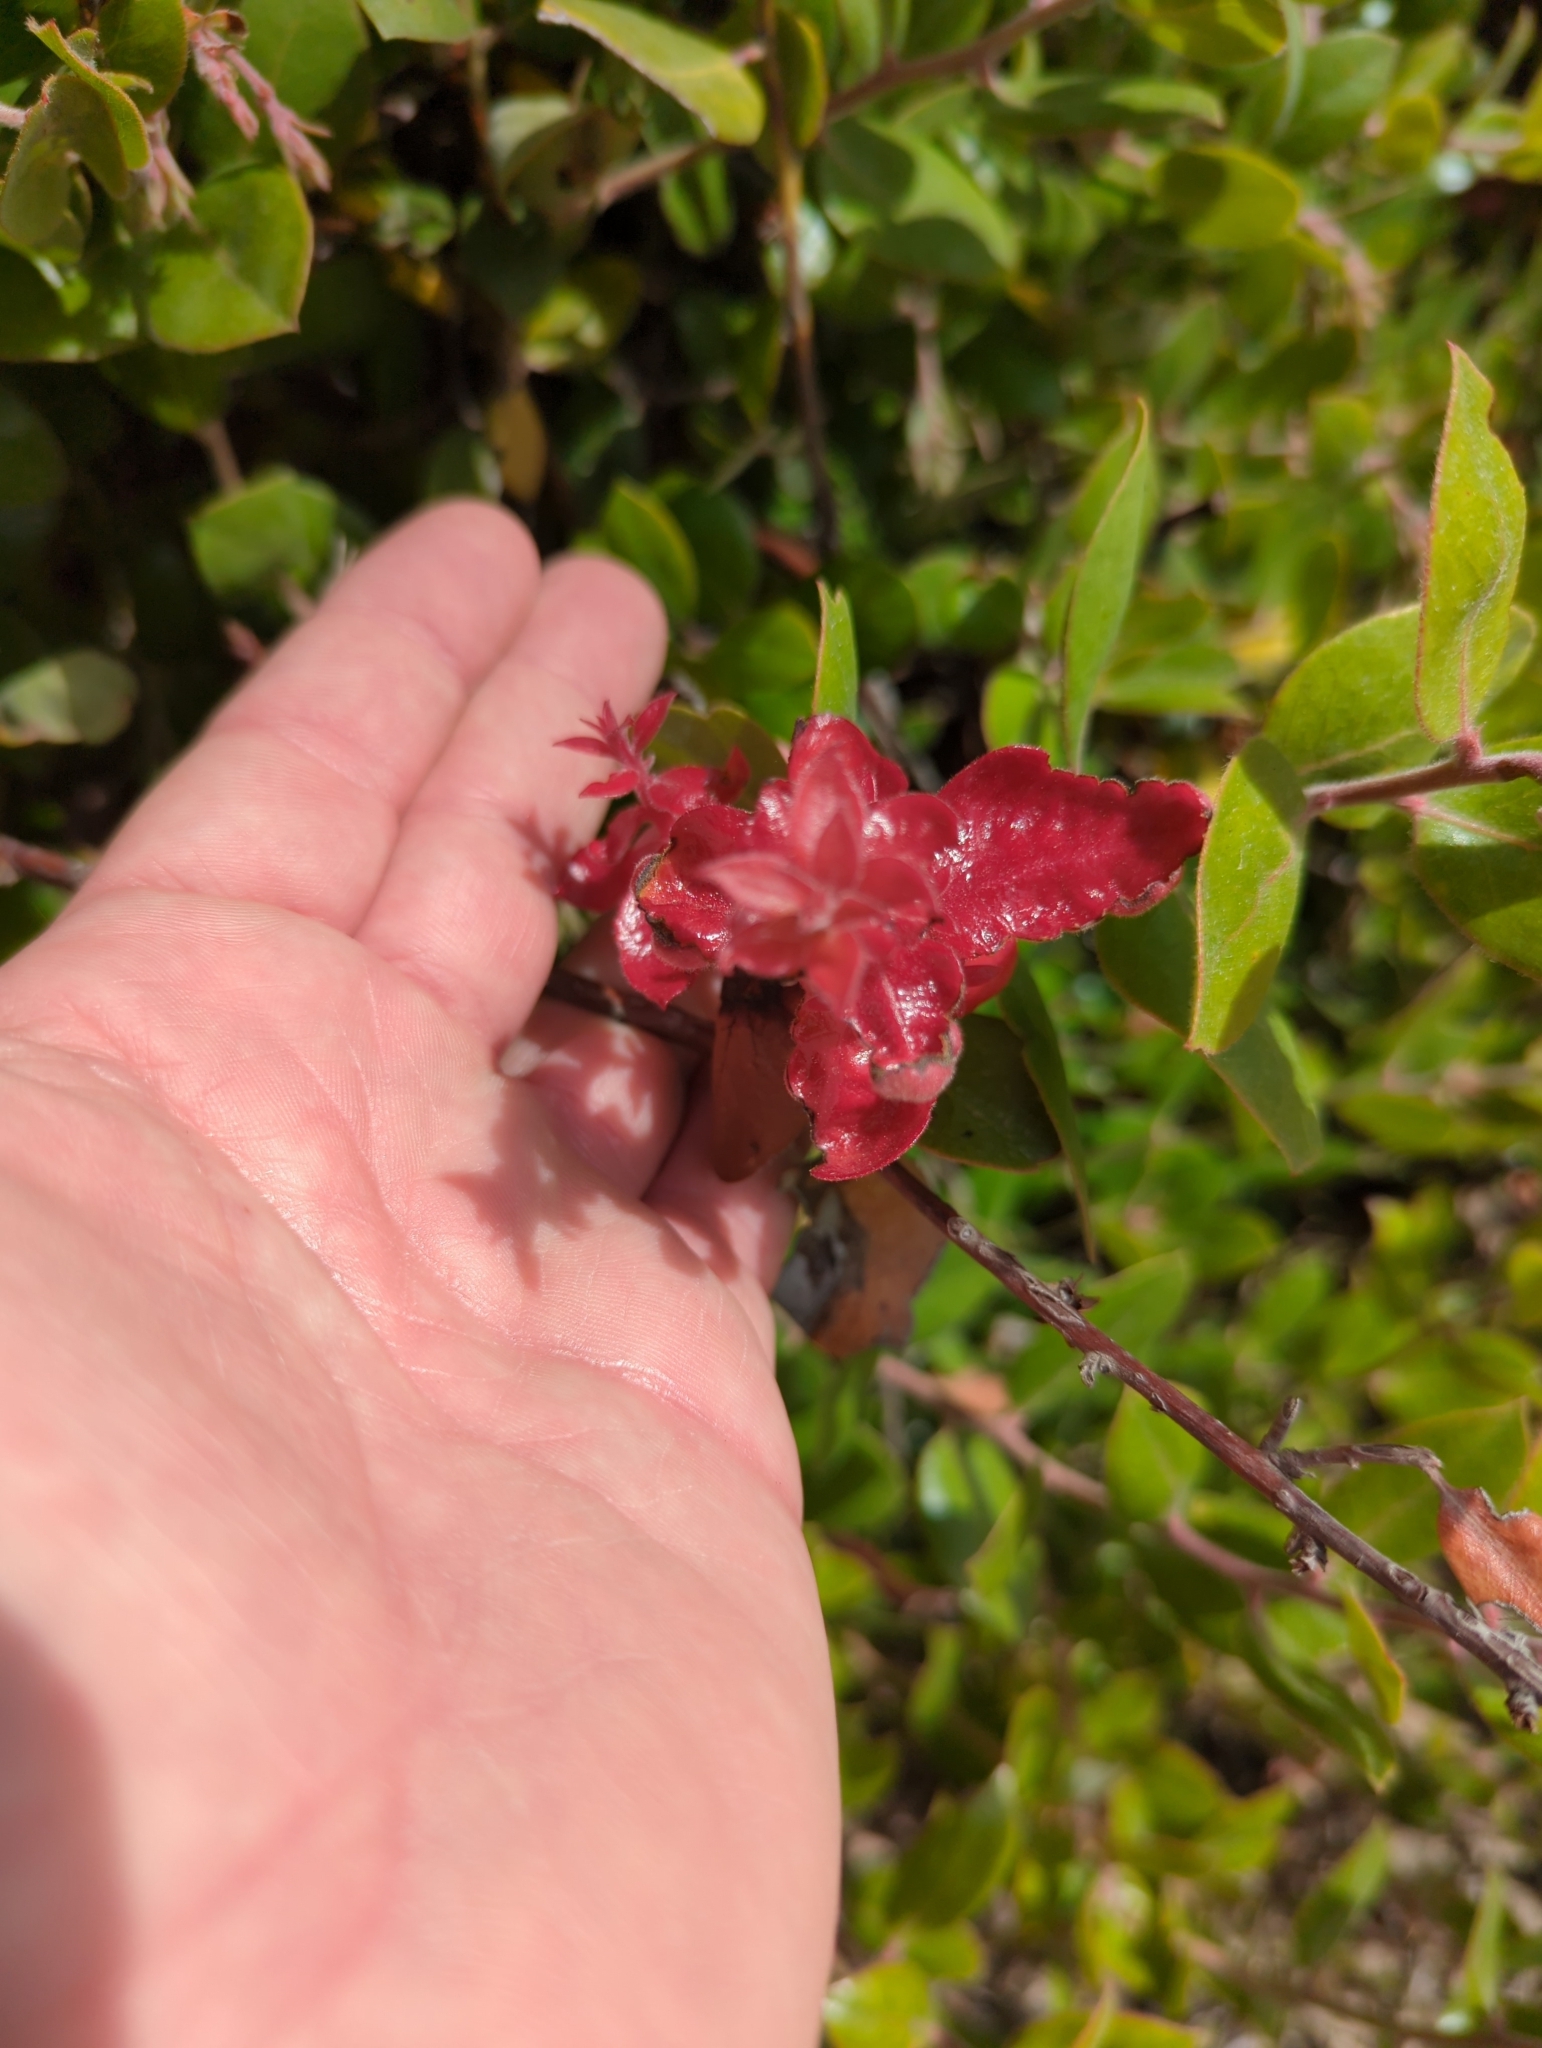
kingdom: Fungi
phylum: Basidiomycota
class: Exobasidiomycetes
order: Exobasidiales
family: Exobasidiaceae
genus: Exobasidium
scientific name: Exobasidium
